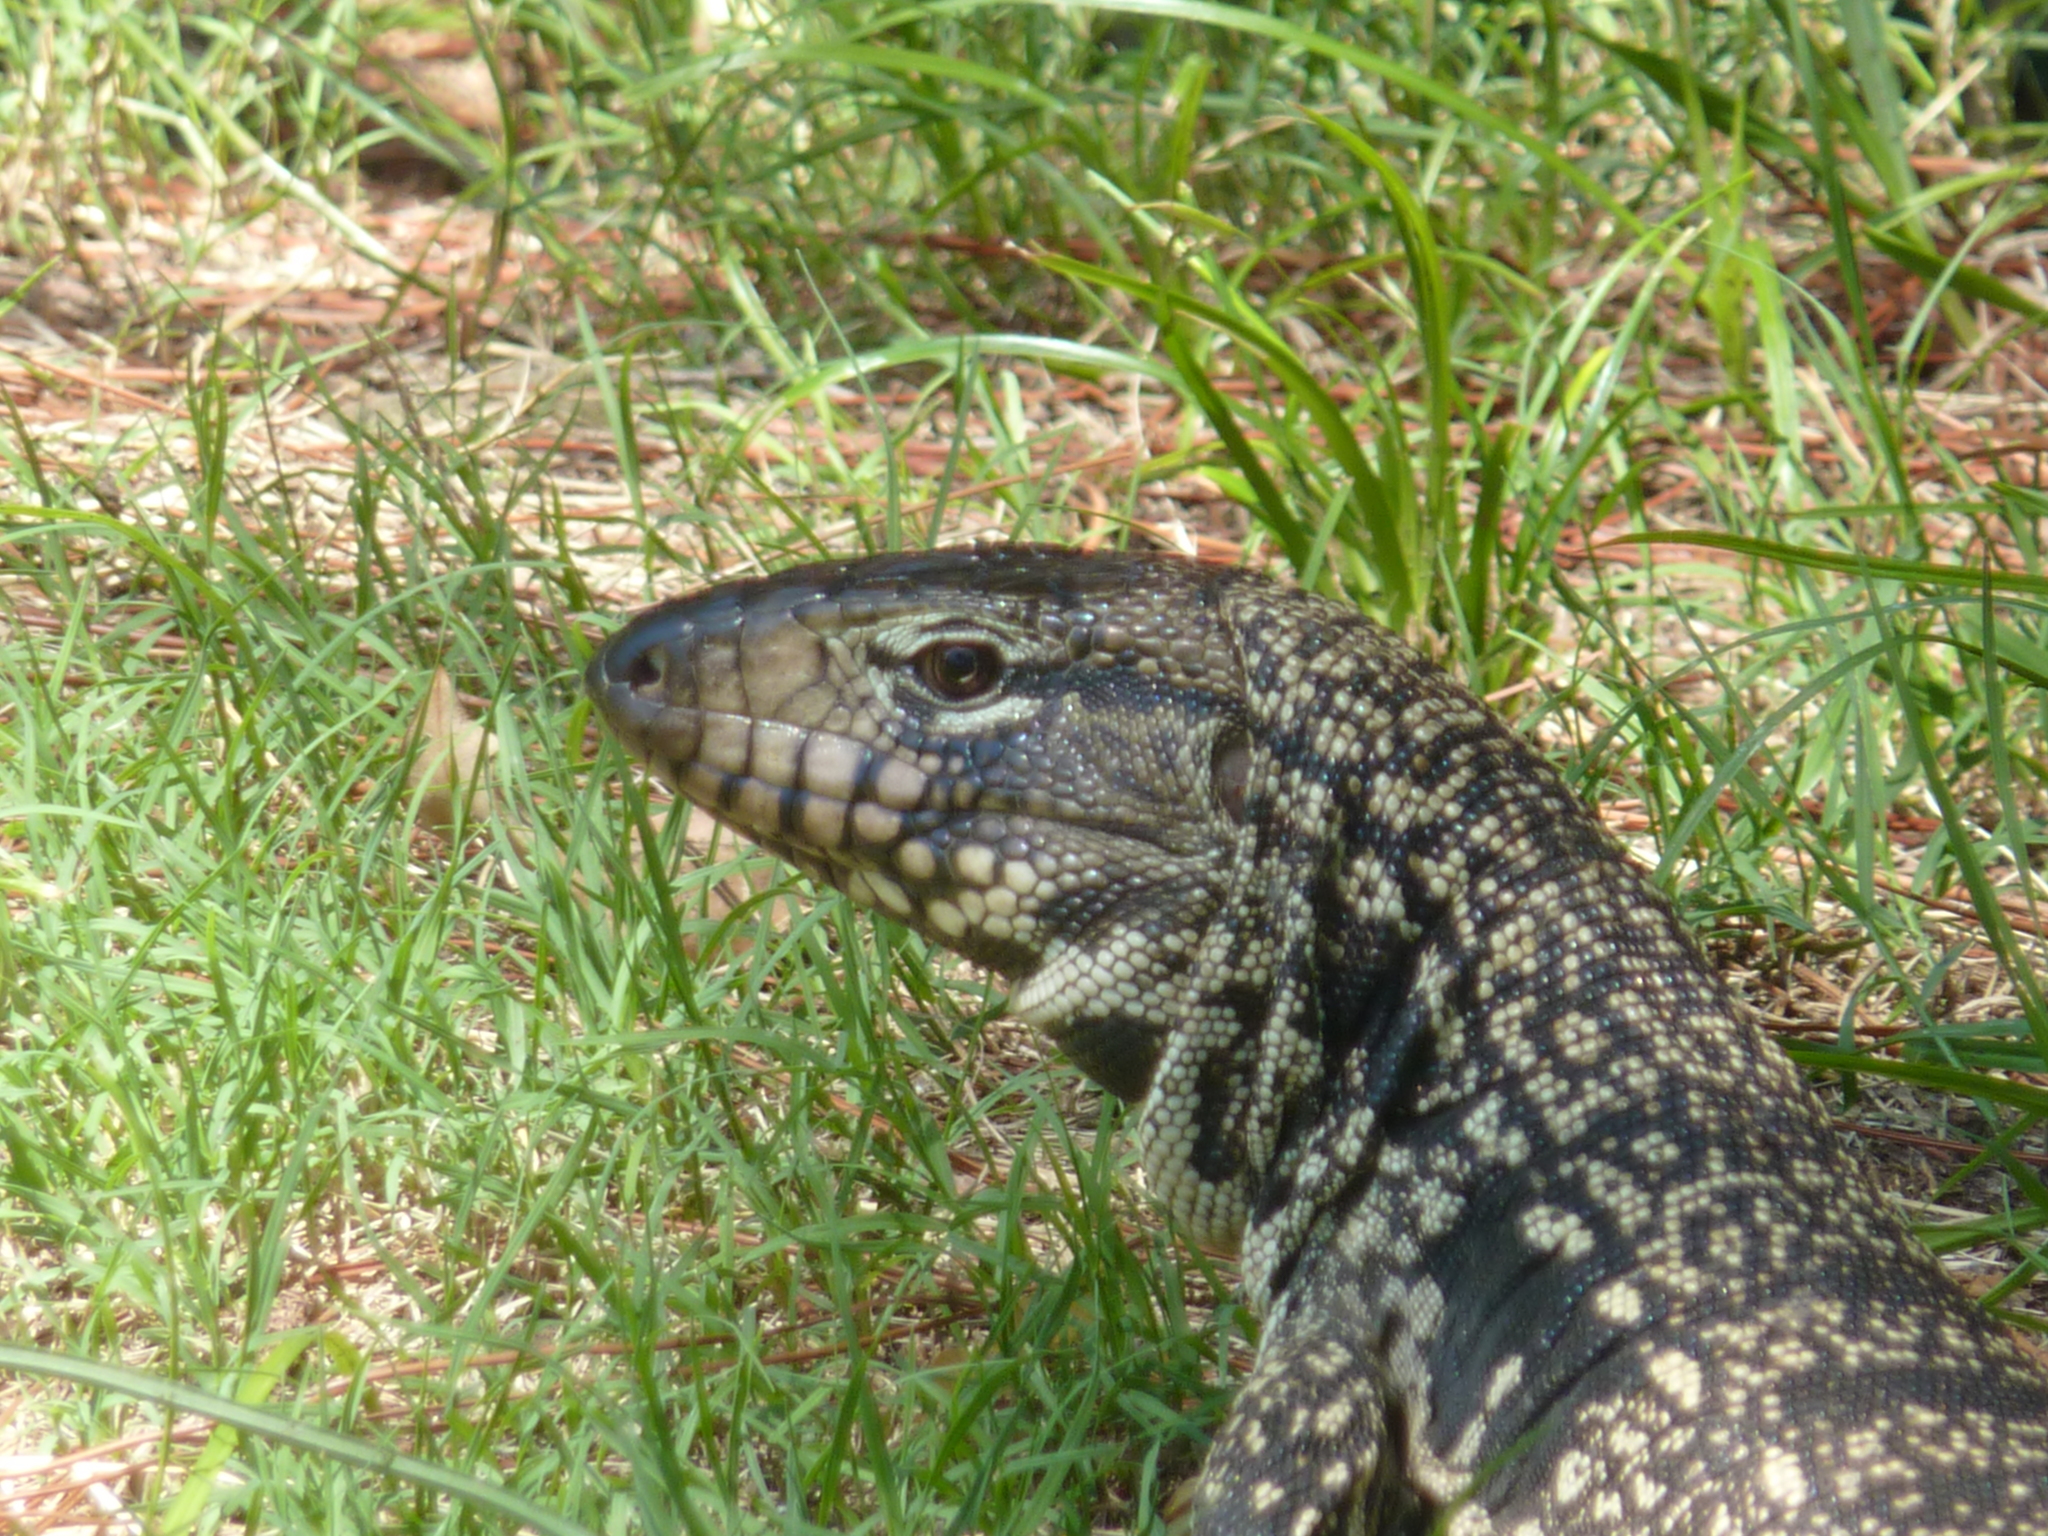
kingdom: Animalia
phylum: Chordata
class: Squamata
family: Teiidae
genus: Salvator
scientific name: Salvator merianae
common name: Argentine black and white tegu
